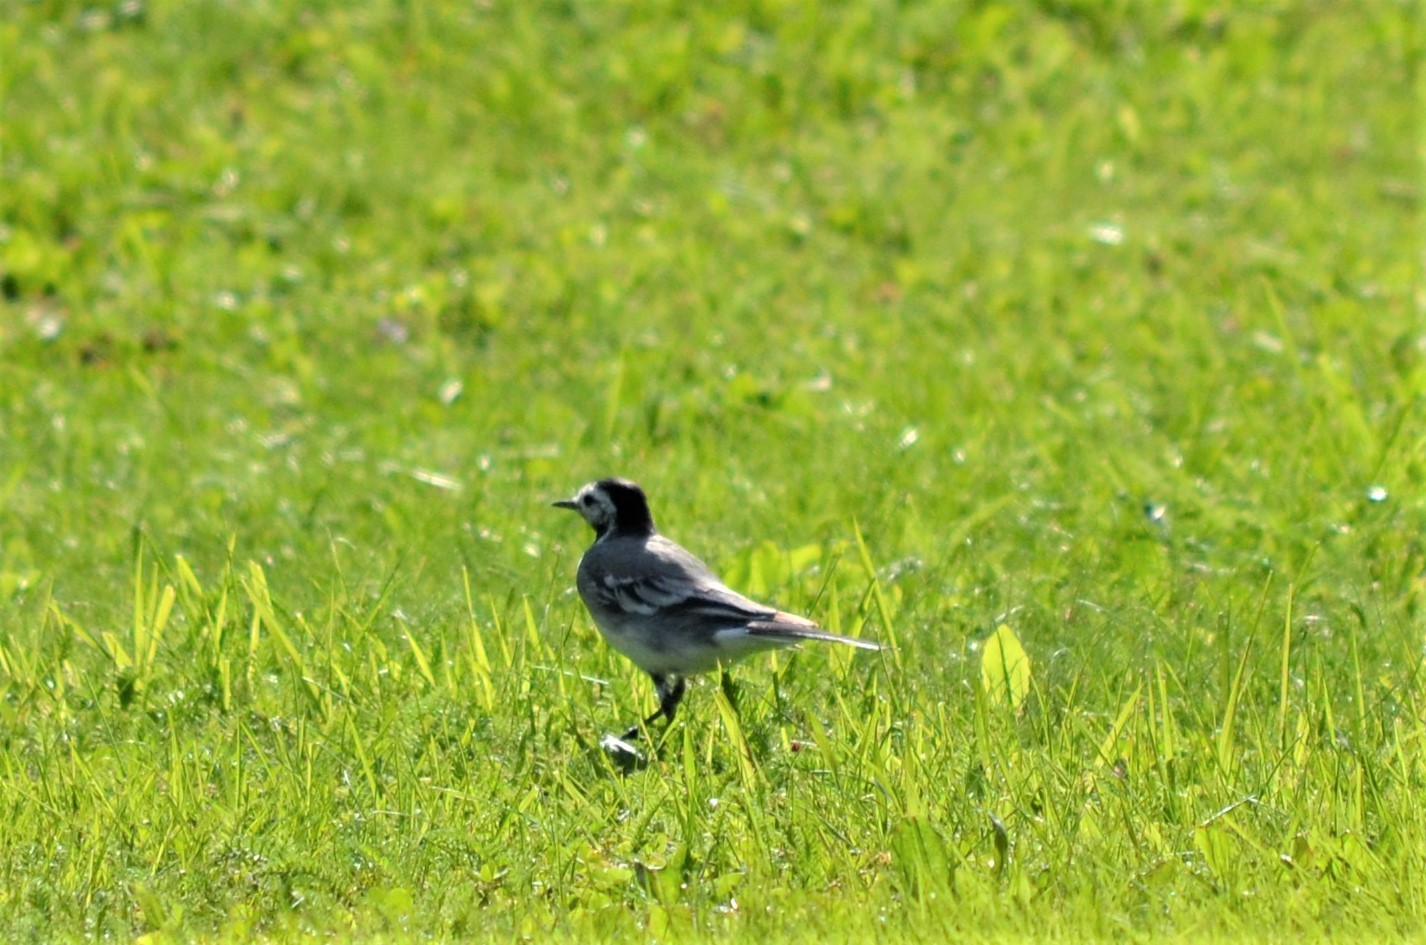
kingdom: Animalia
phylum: Chordata
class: Aves
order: Passeriformes
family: Motacillidae
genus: Motacilla
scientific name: Motacilla alba
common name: White wagtail
